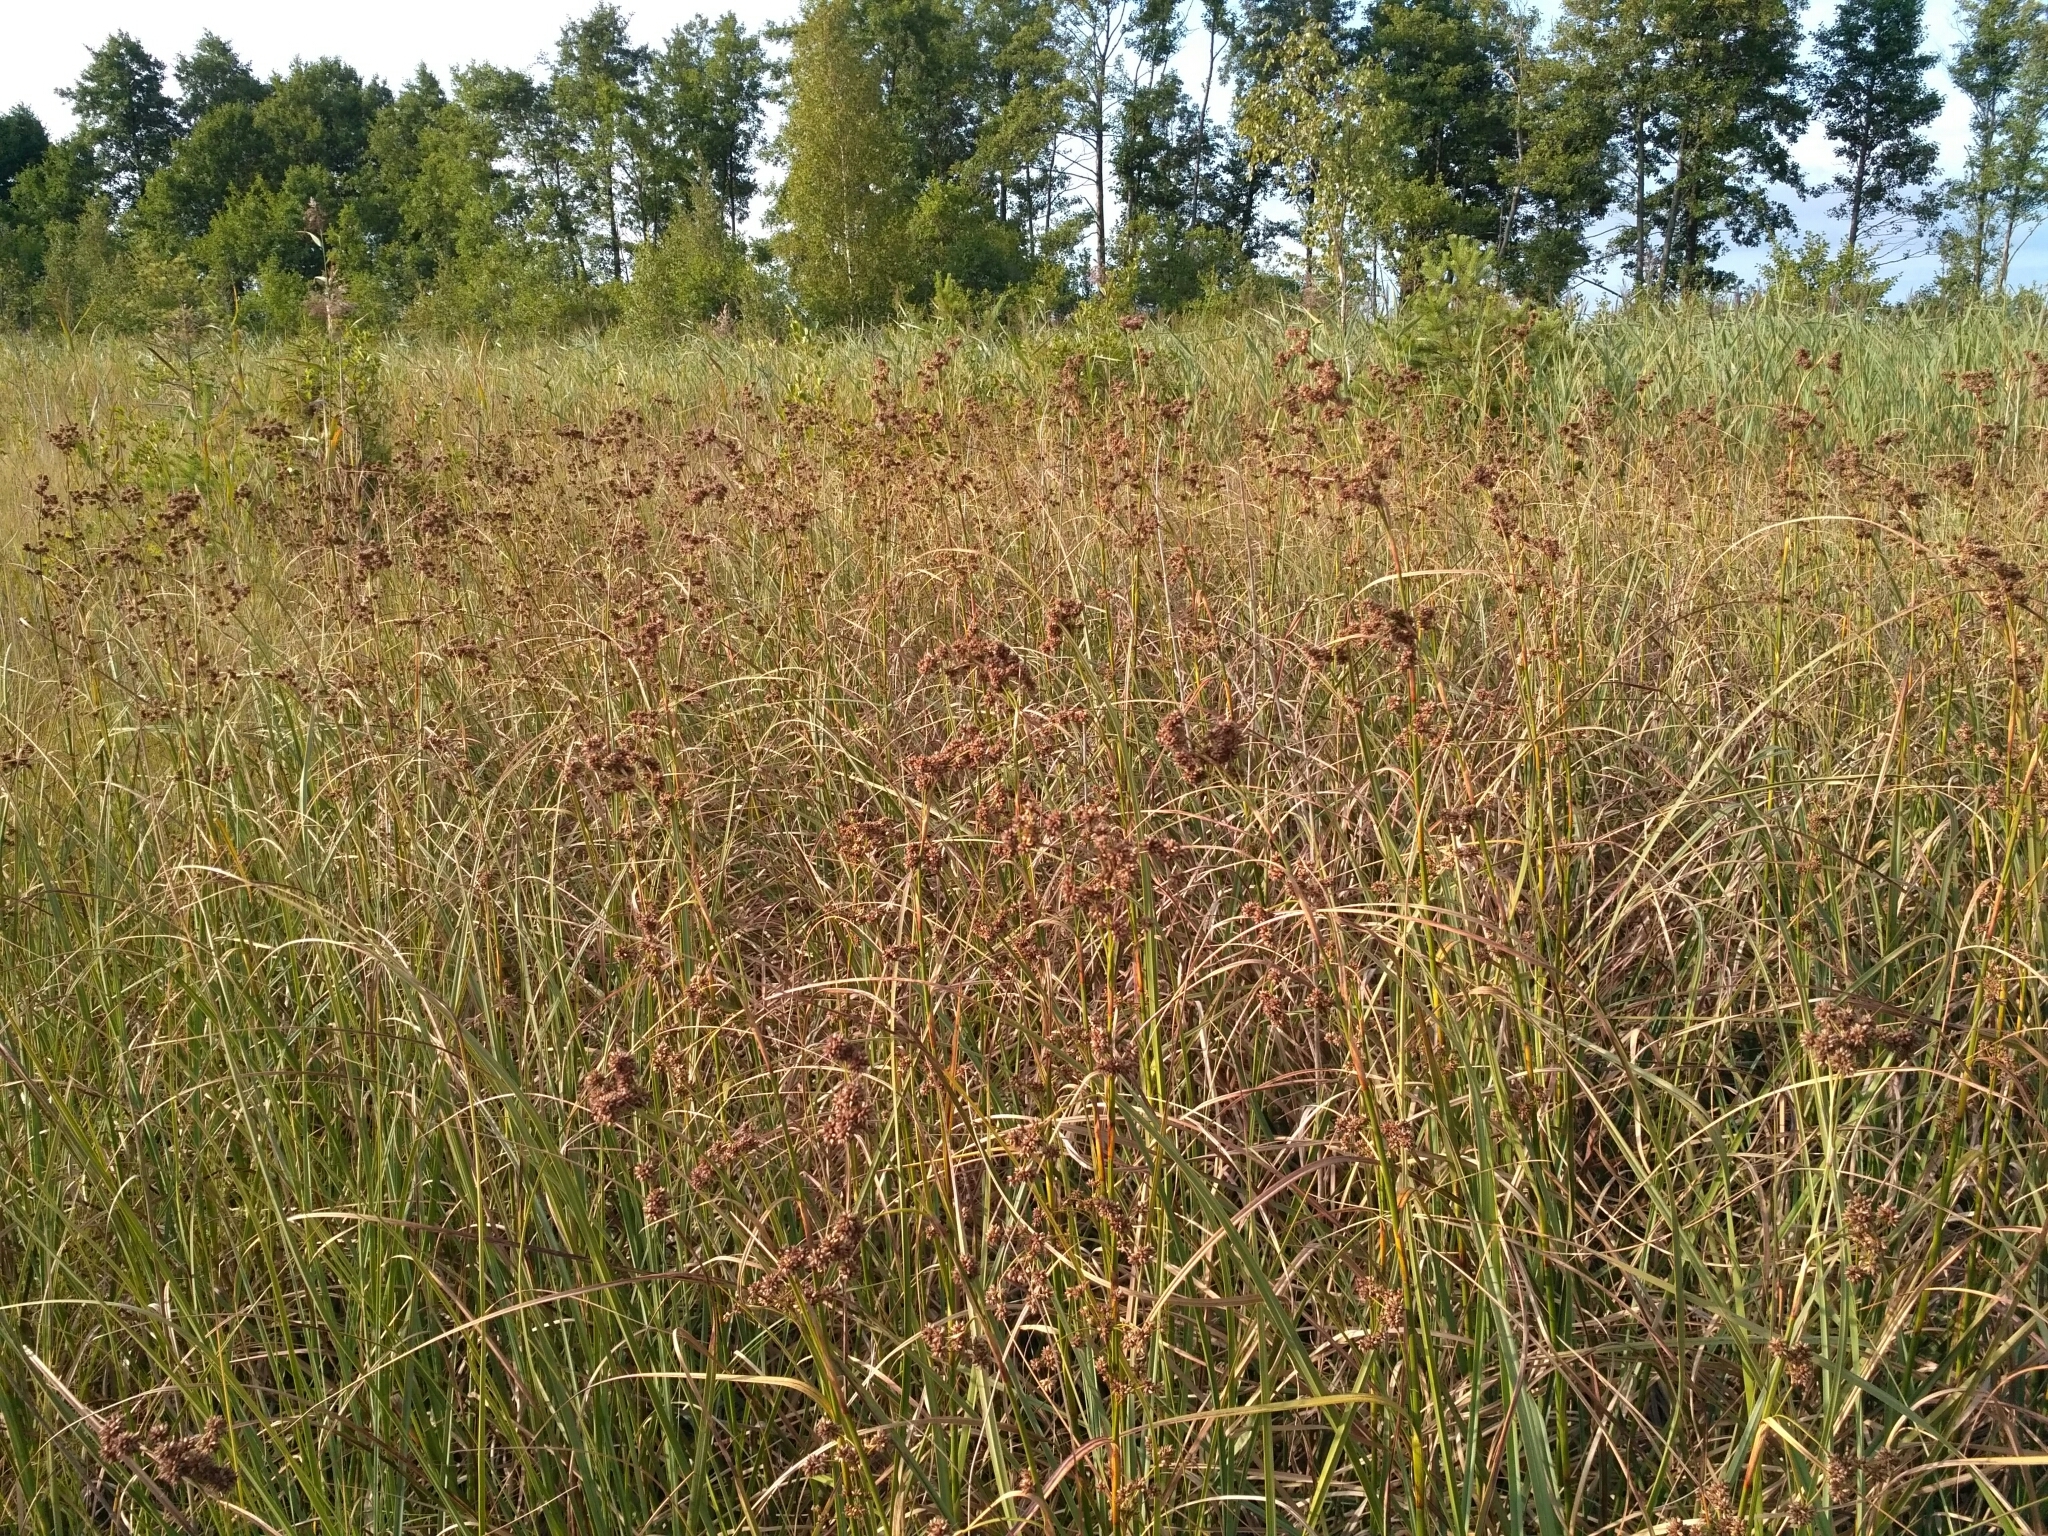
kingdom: Plantae
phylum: Tracheophyta
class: Liliopsida
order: Poales
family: Cyperaceae
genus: Cladium
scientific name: Cladium mariscus
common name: Great fen-sedge
